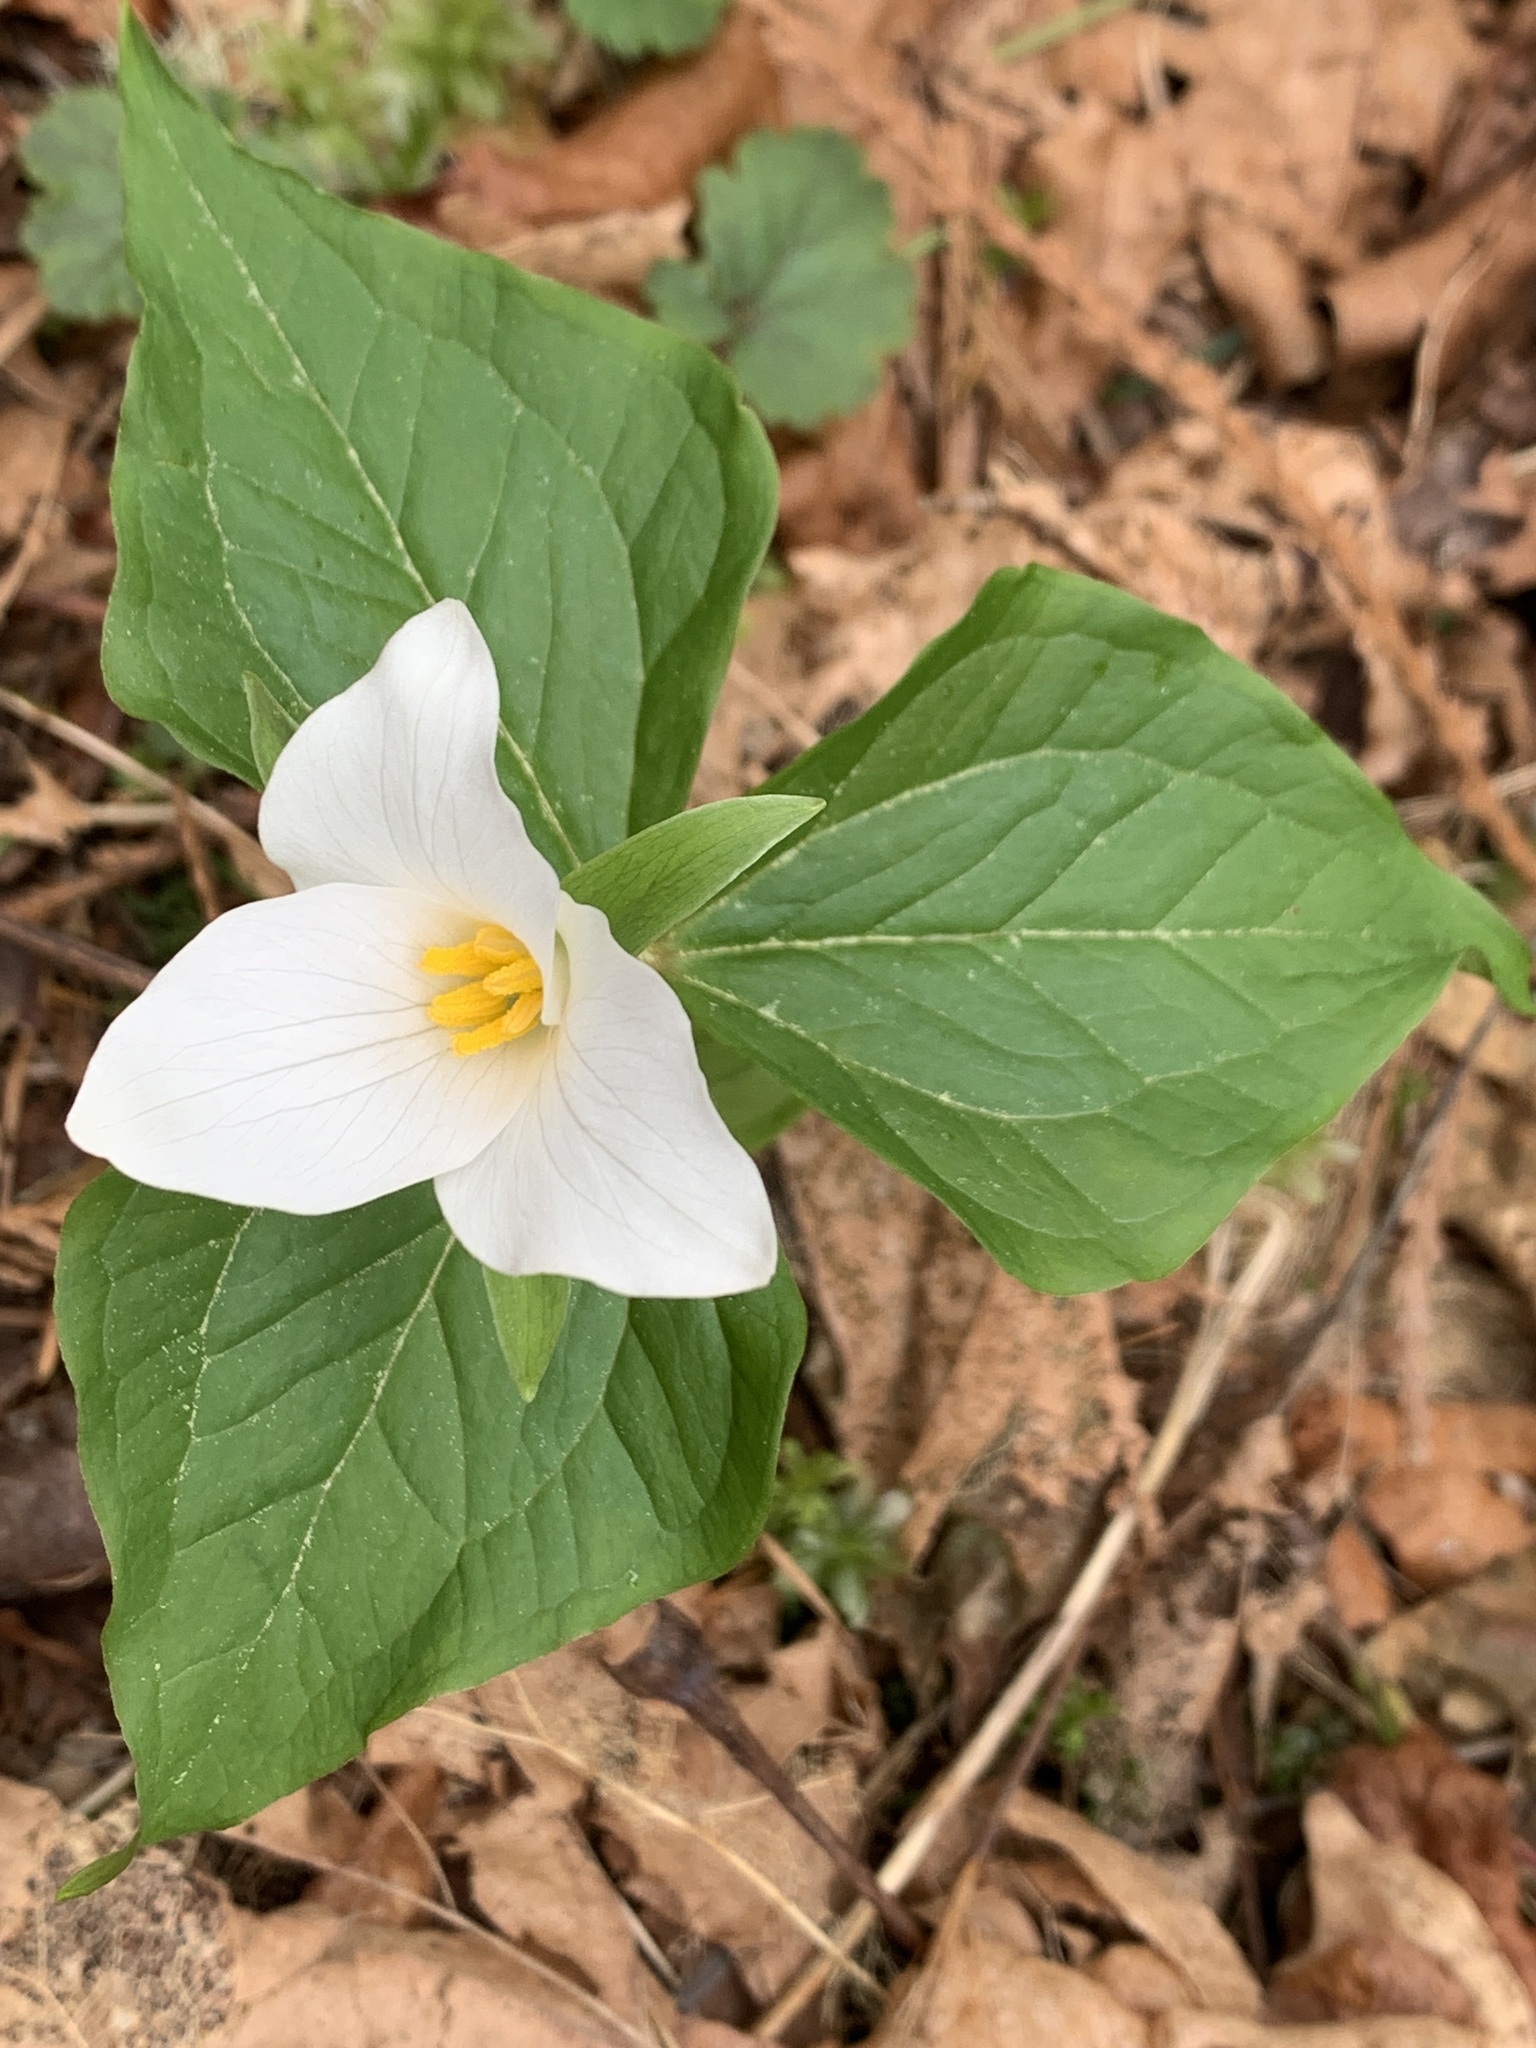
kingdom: Plantae
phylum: Tracheophyta
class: Liliopsida
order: Liliales
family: Melanthiaceae
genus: Trillium
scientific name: Trillium ovatum
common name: Pacific trillium
